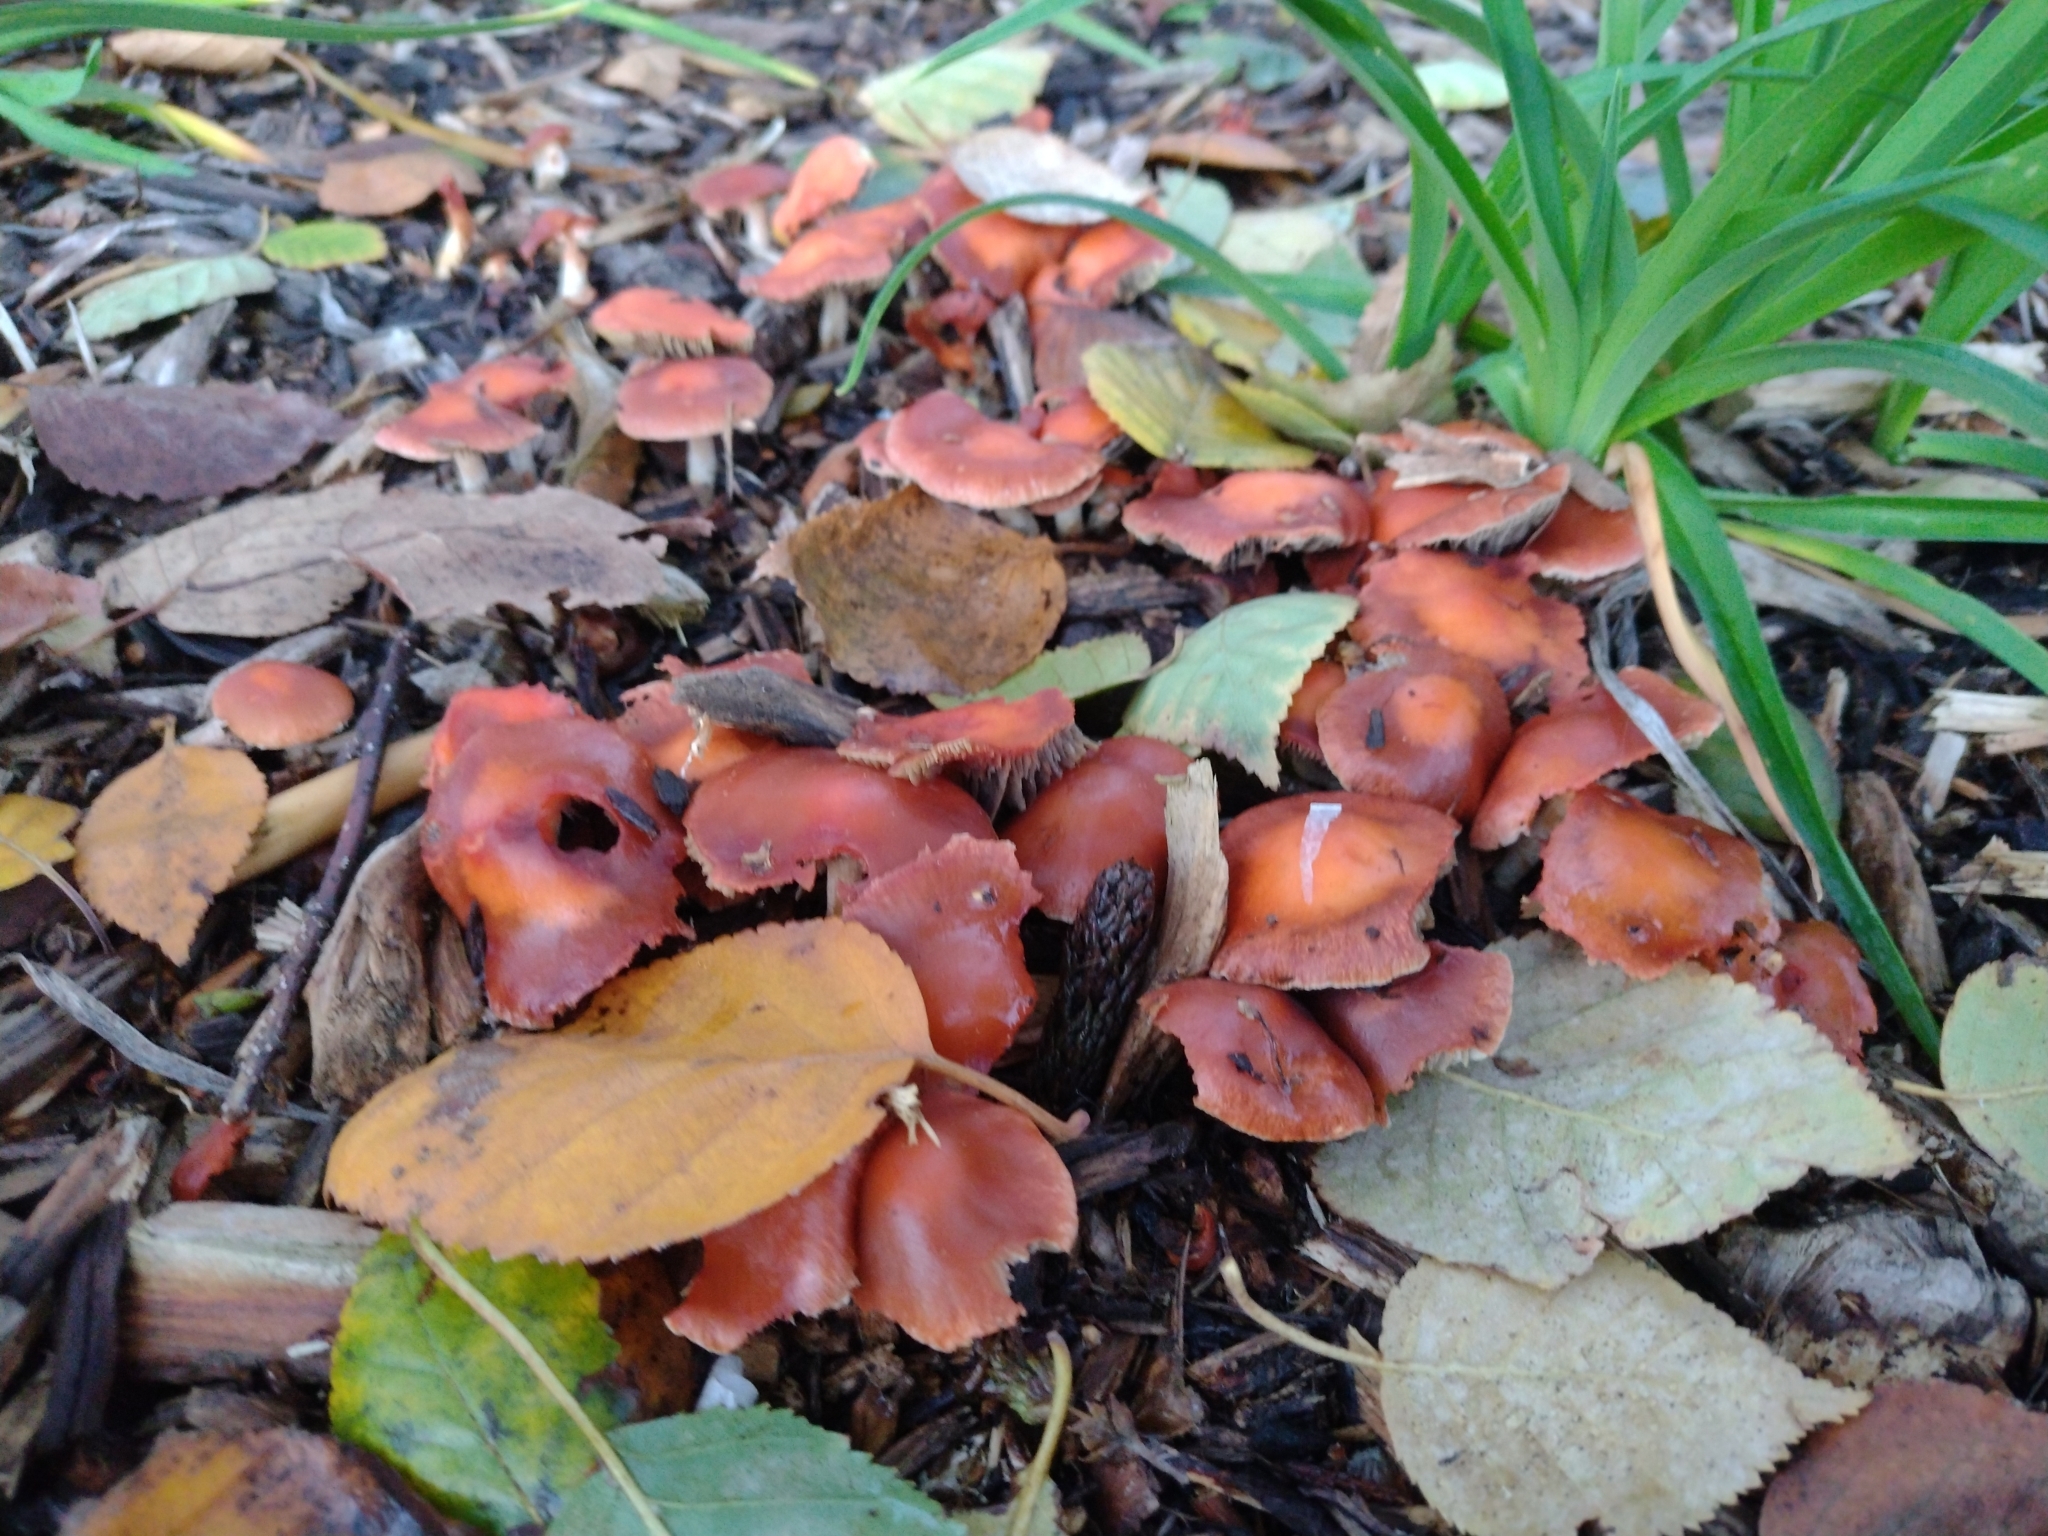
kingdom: Fungi
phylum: Basidiomycota
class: Agaricomycetes
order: Agaricales
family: Strophariaceae
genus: Leratiomyces
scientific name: Leratiomyces ceres
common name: Redlead roundhead
